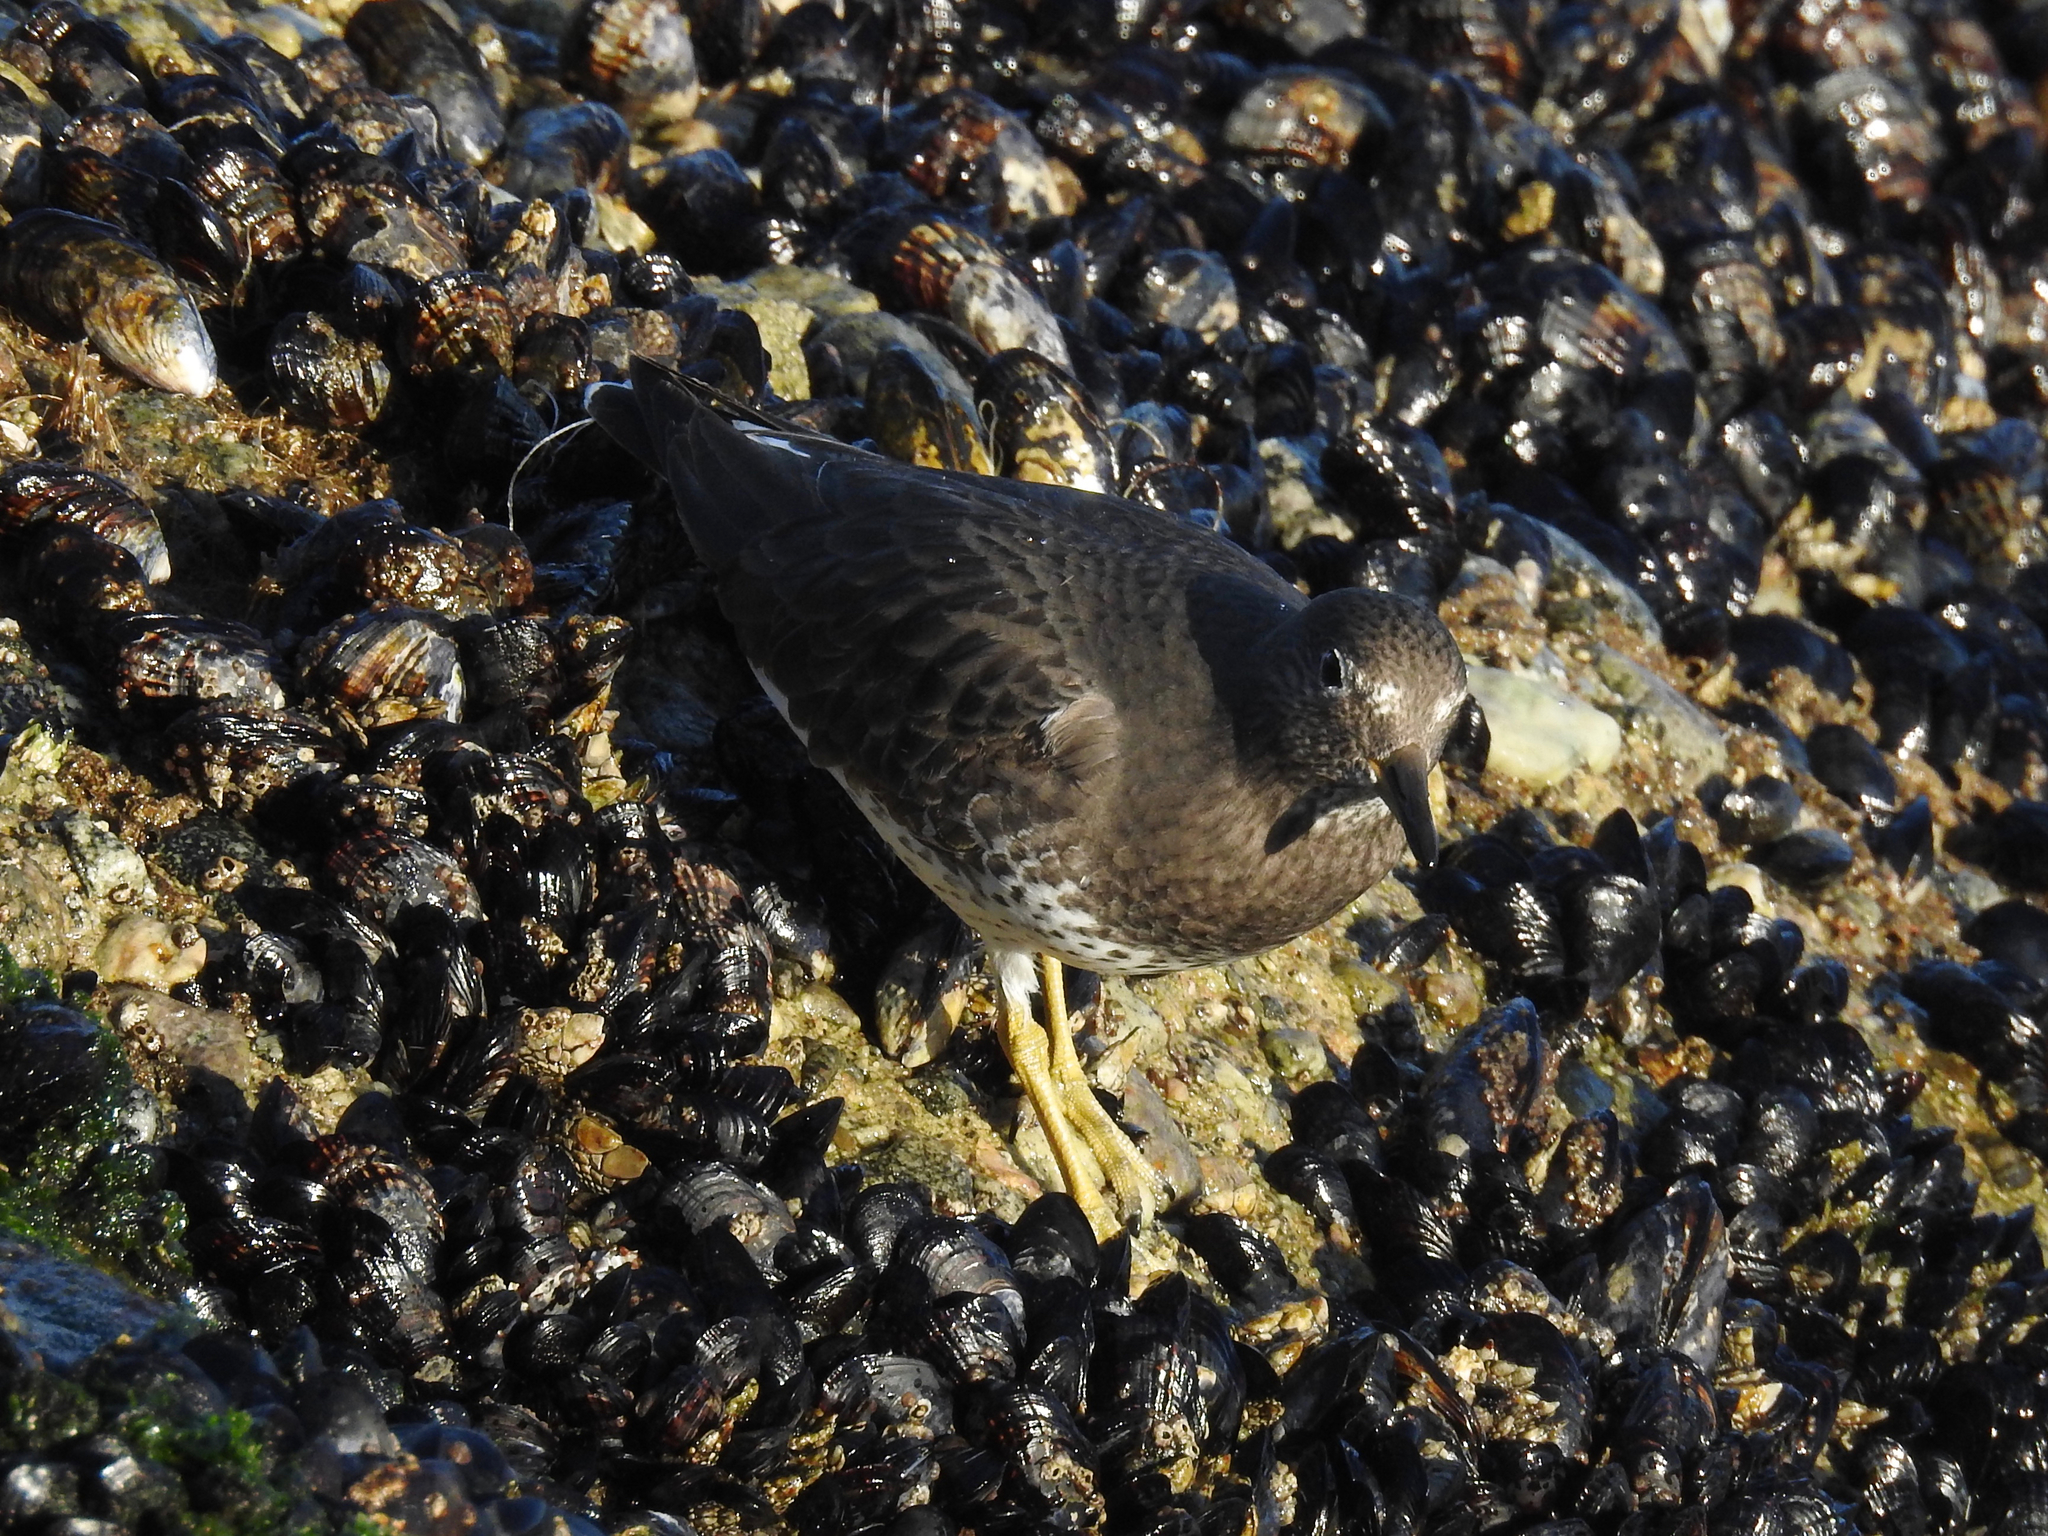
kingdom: Animalia
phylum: Chordata
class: Aves
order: Charadriiformes
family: Scolopacidae
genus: Calidris
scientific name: Calidris virgata
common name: Surfbird
